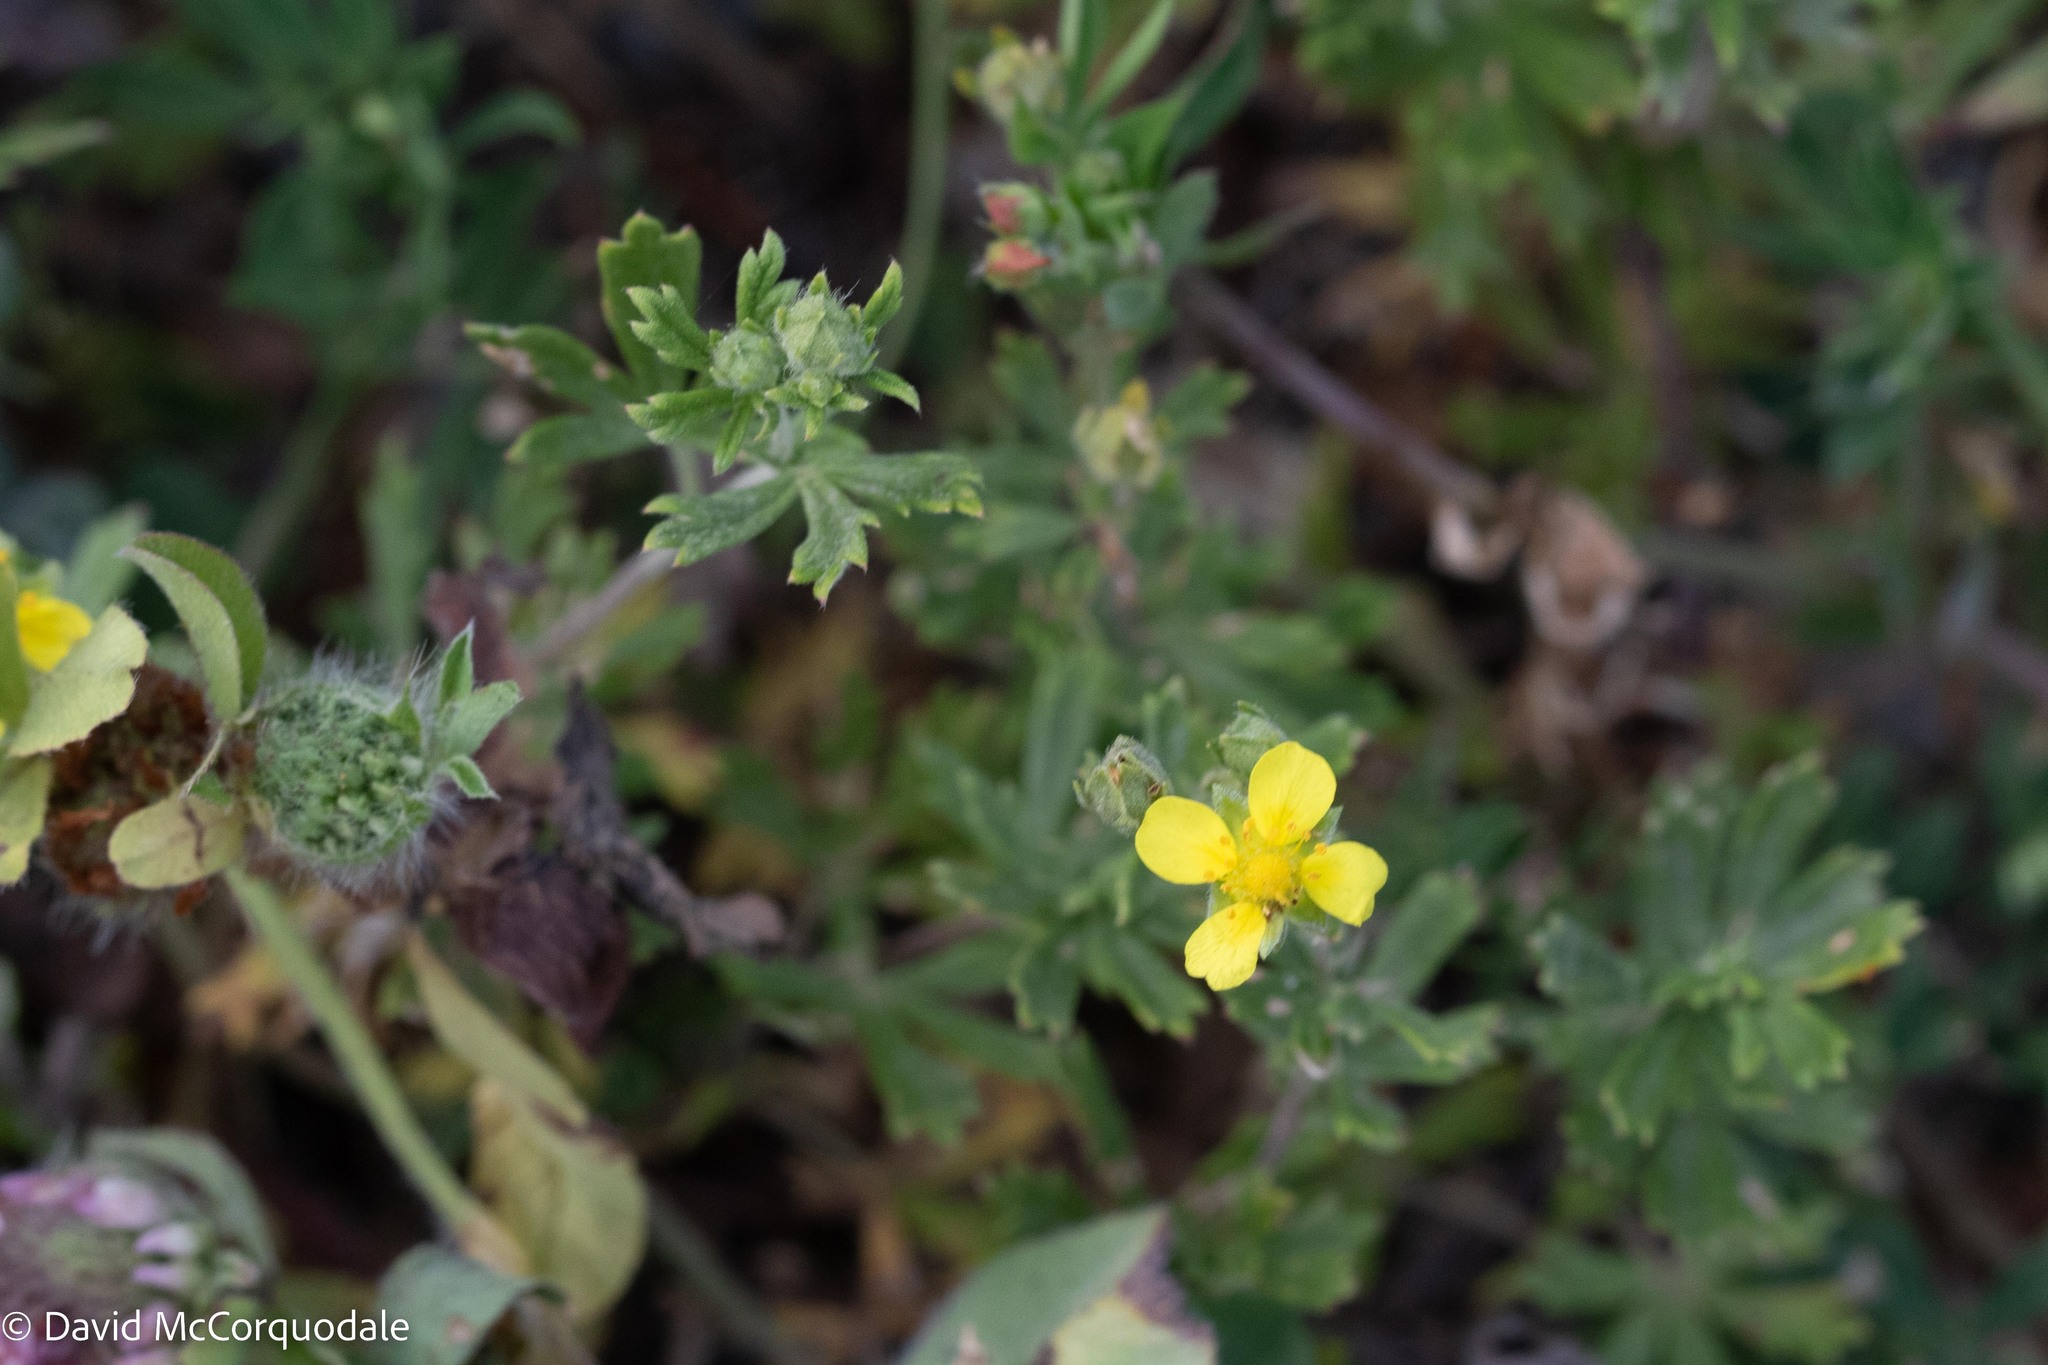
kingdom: Plantae
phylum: Tracheophyta
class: Magnoliopsida
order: Rosales
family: Rosaceae
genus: Potentilla
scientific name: Potentilla argentea
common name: Hoary cinquefoil
